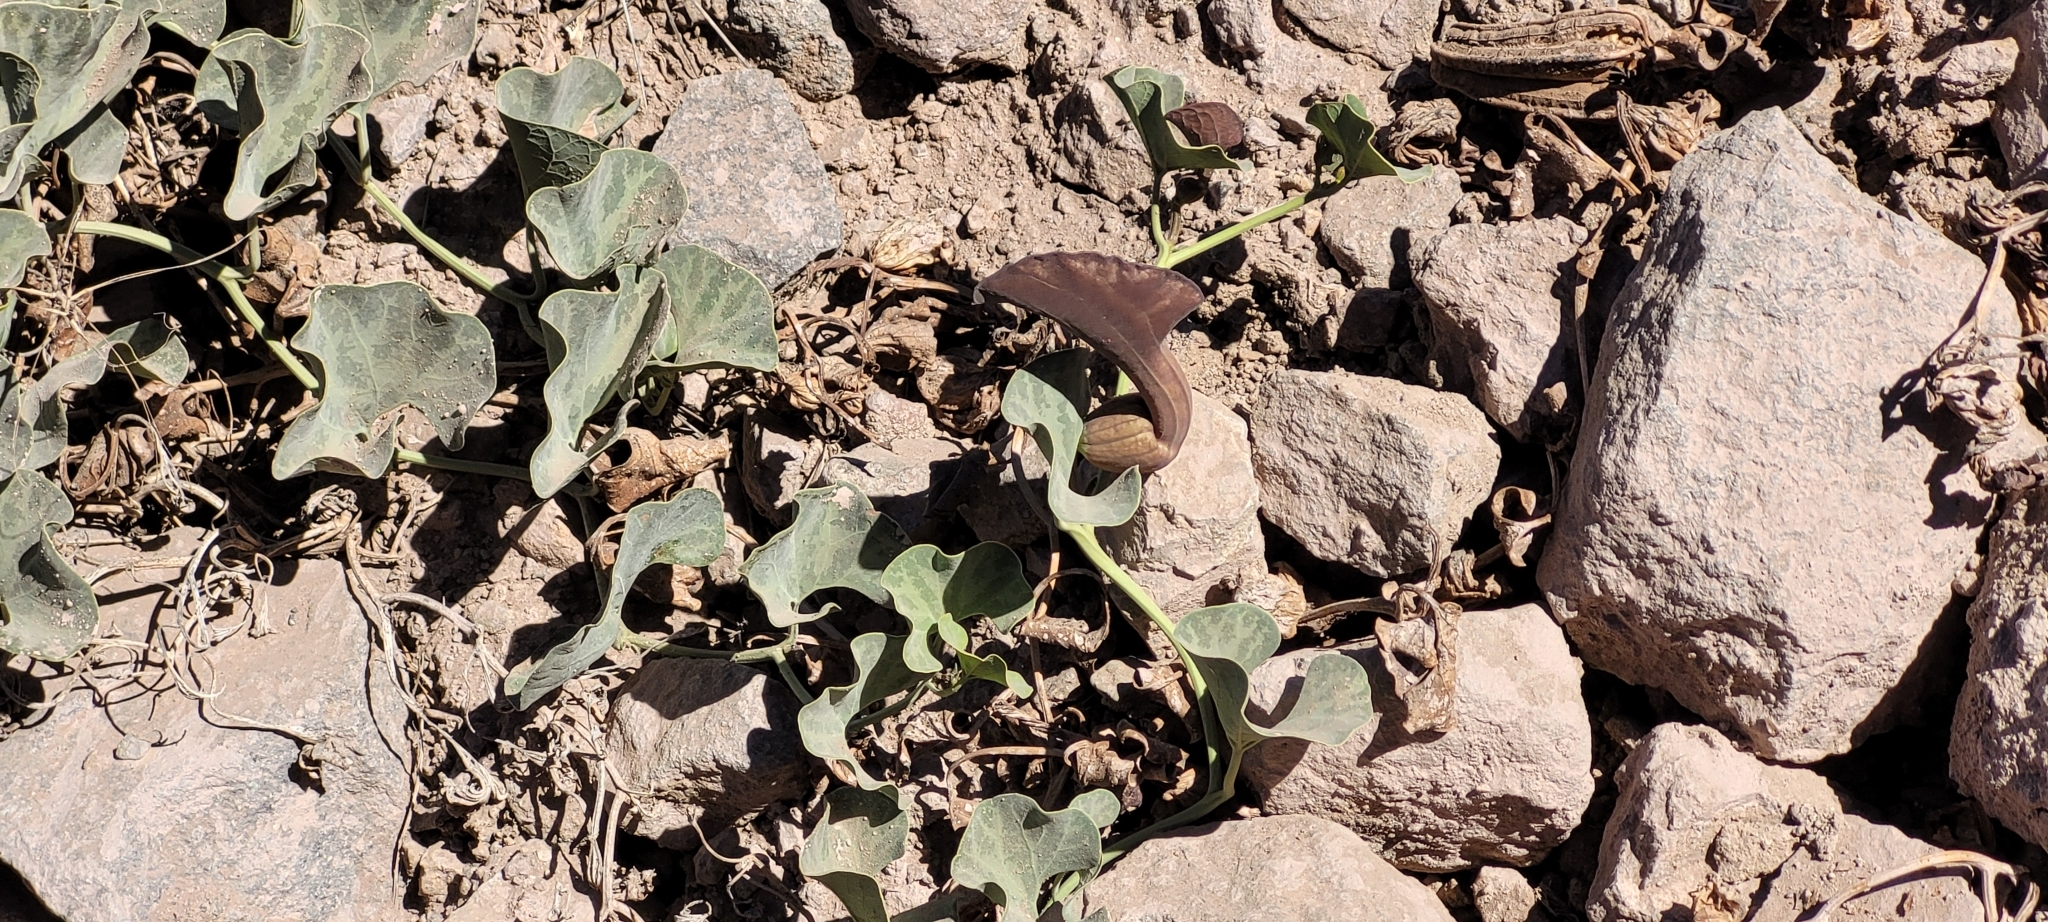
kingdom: Plantae
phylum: Tracheophyta
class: Magnoliopsida
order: Piperales
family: Aristolochiaceae
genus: Aristolochia
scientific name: Aristolochia chilensis
